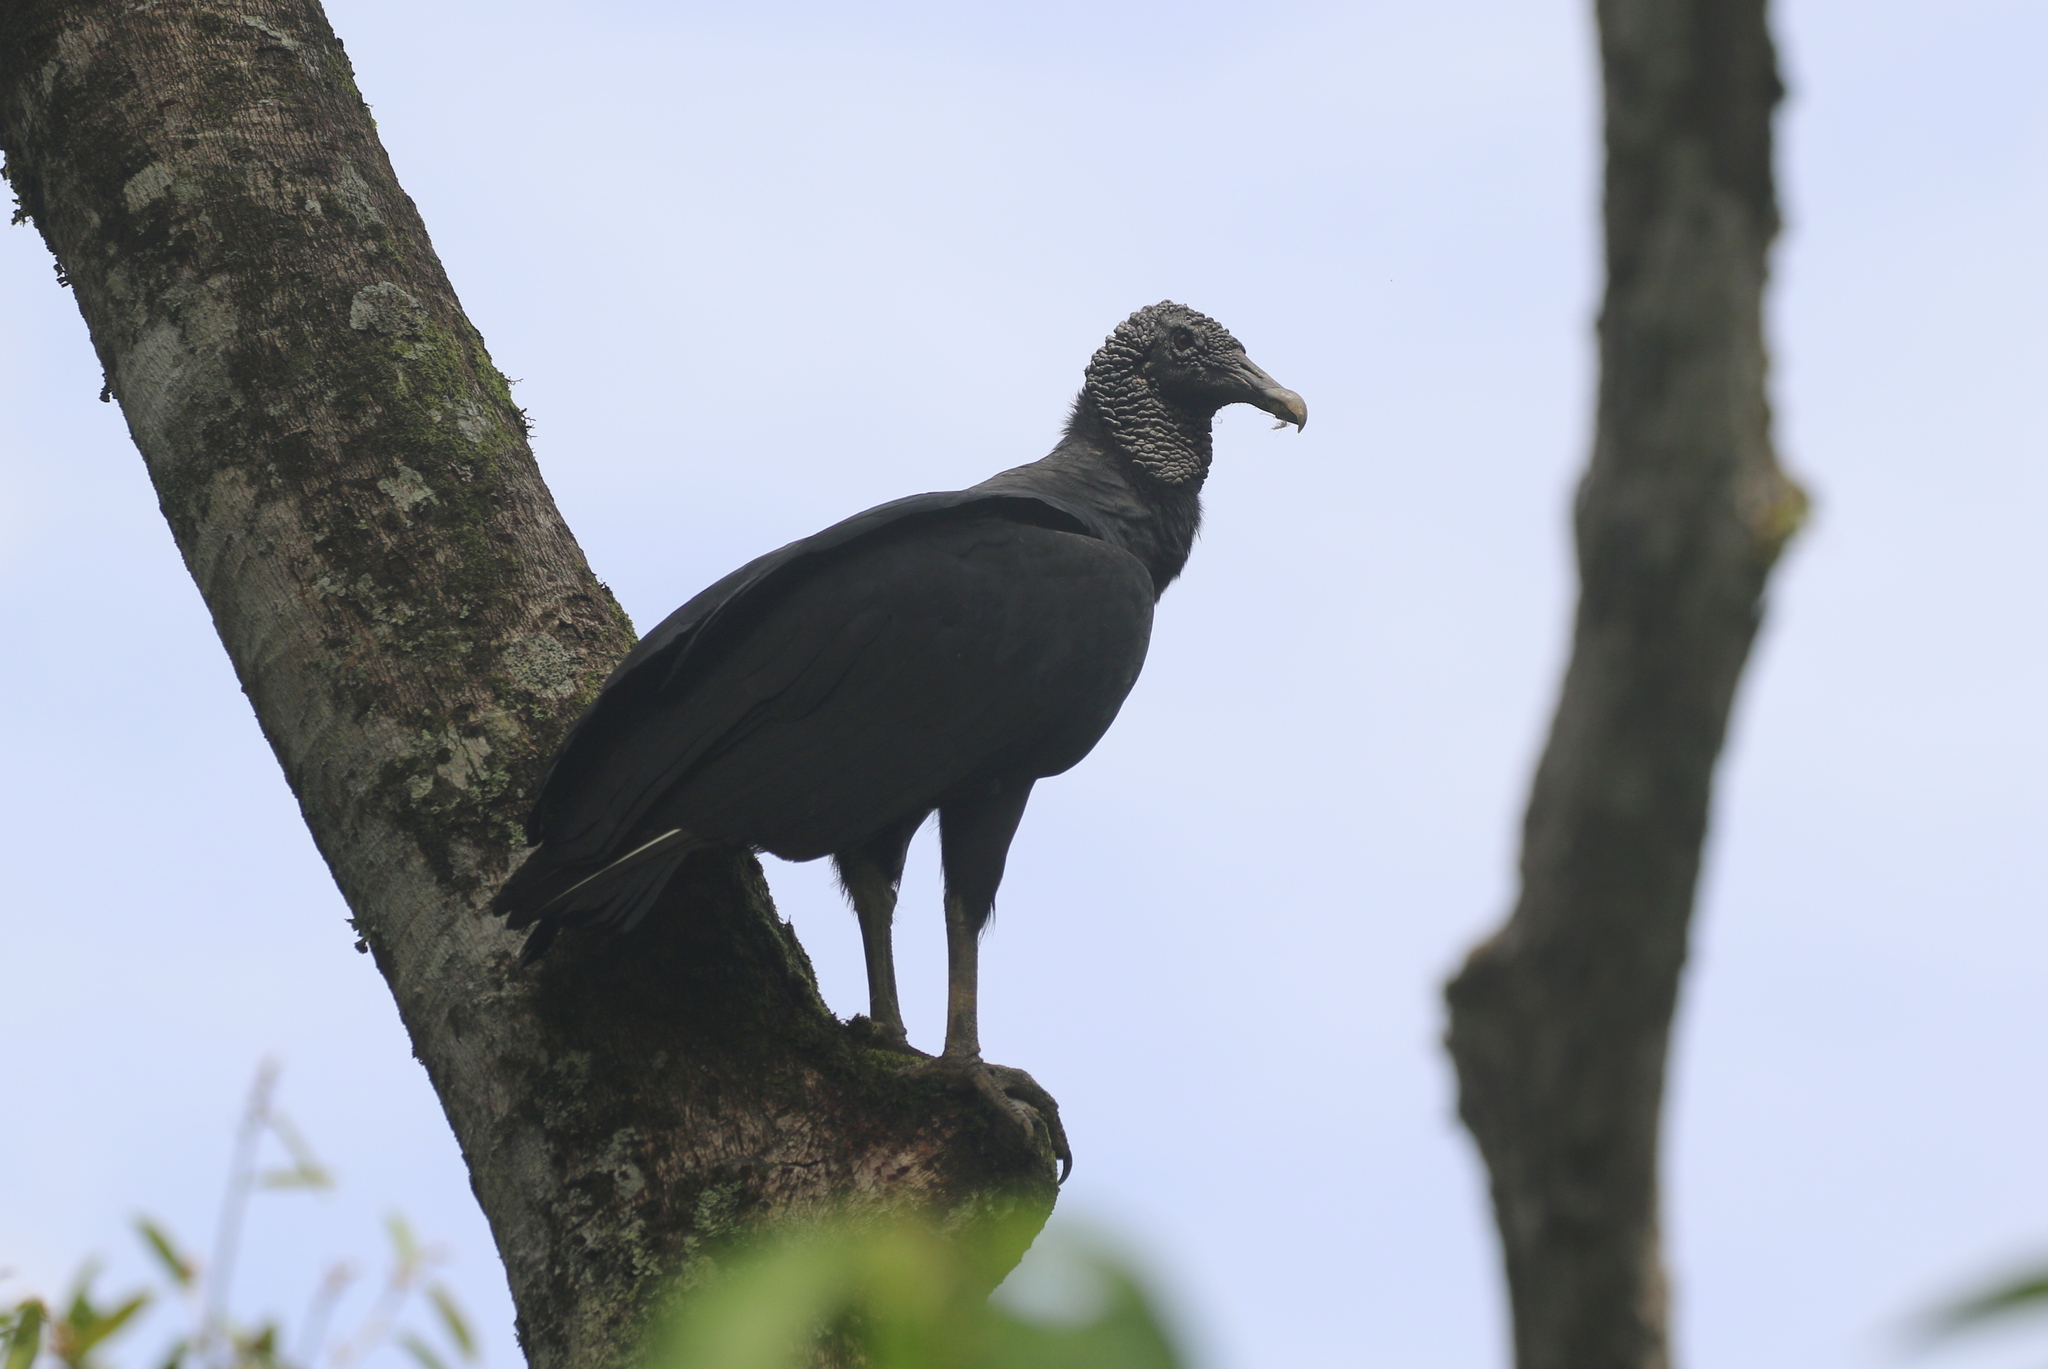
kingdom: Animalia
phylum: Chordata
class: Aves
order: Accipitriformes
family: Cathartidae
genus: Coragyps
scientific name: Coragyps atratus
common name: Black vulture
